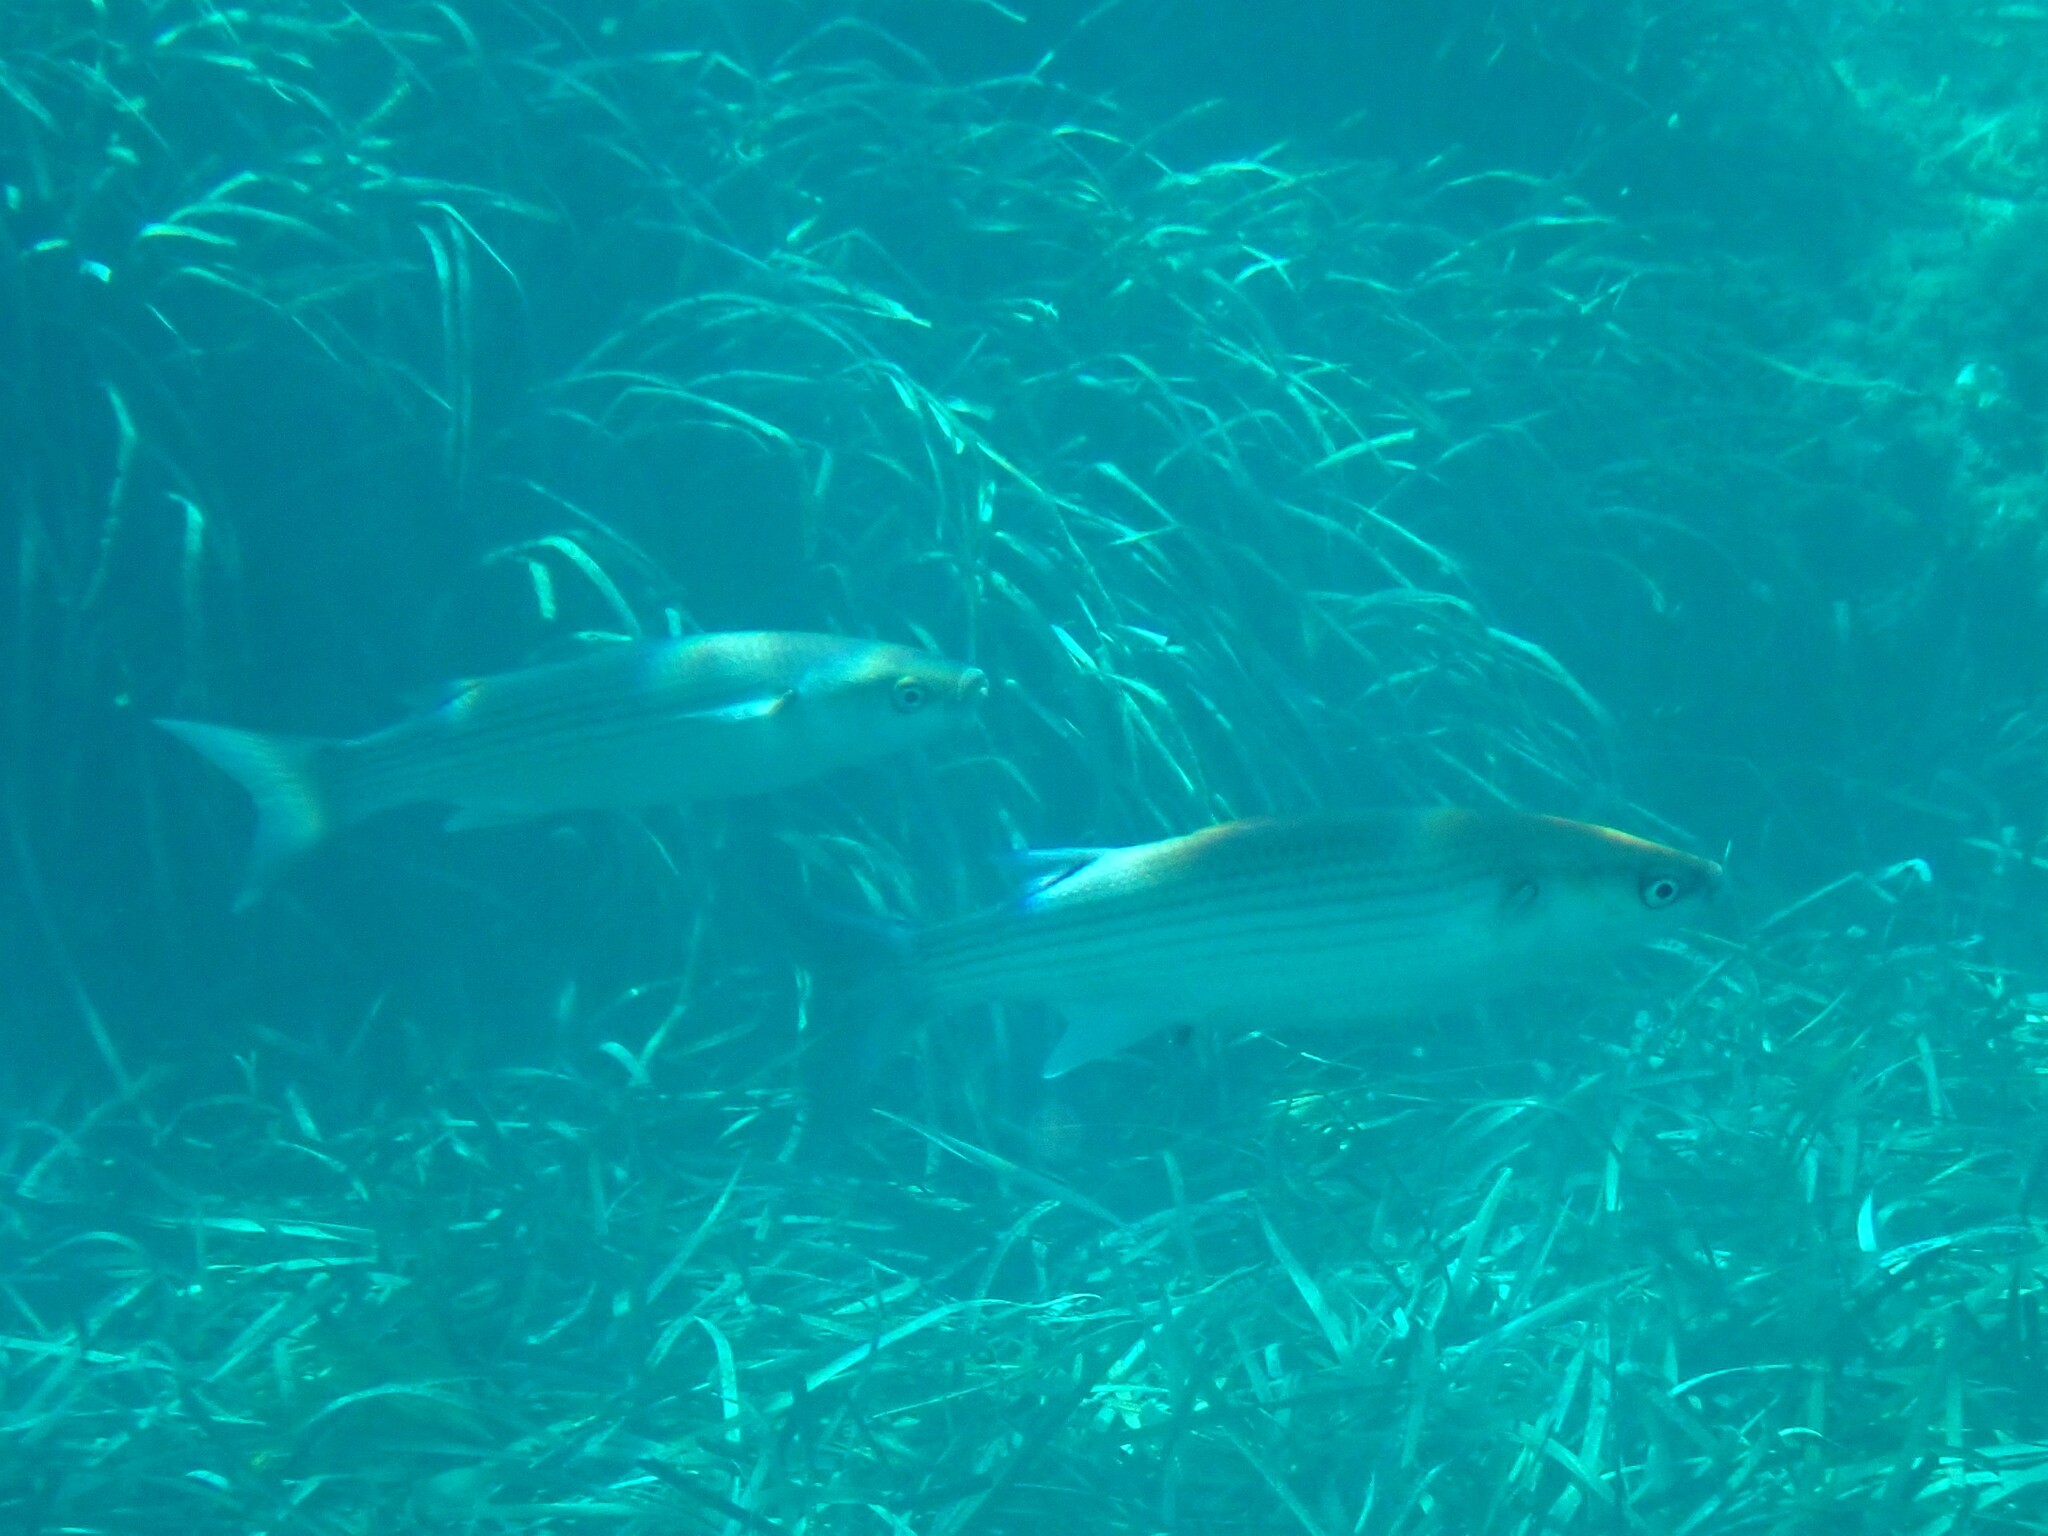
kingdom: Animalia
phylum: Chordata
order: Mugiliformes
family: Mugilidae
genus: Chelon
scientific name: Chelon labrosus
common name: Thick-lipped mullet
